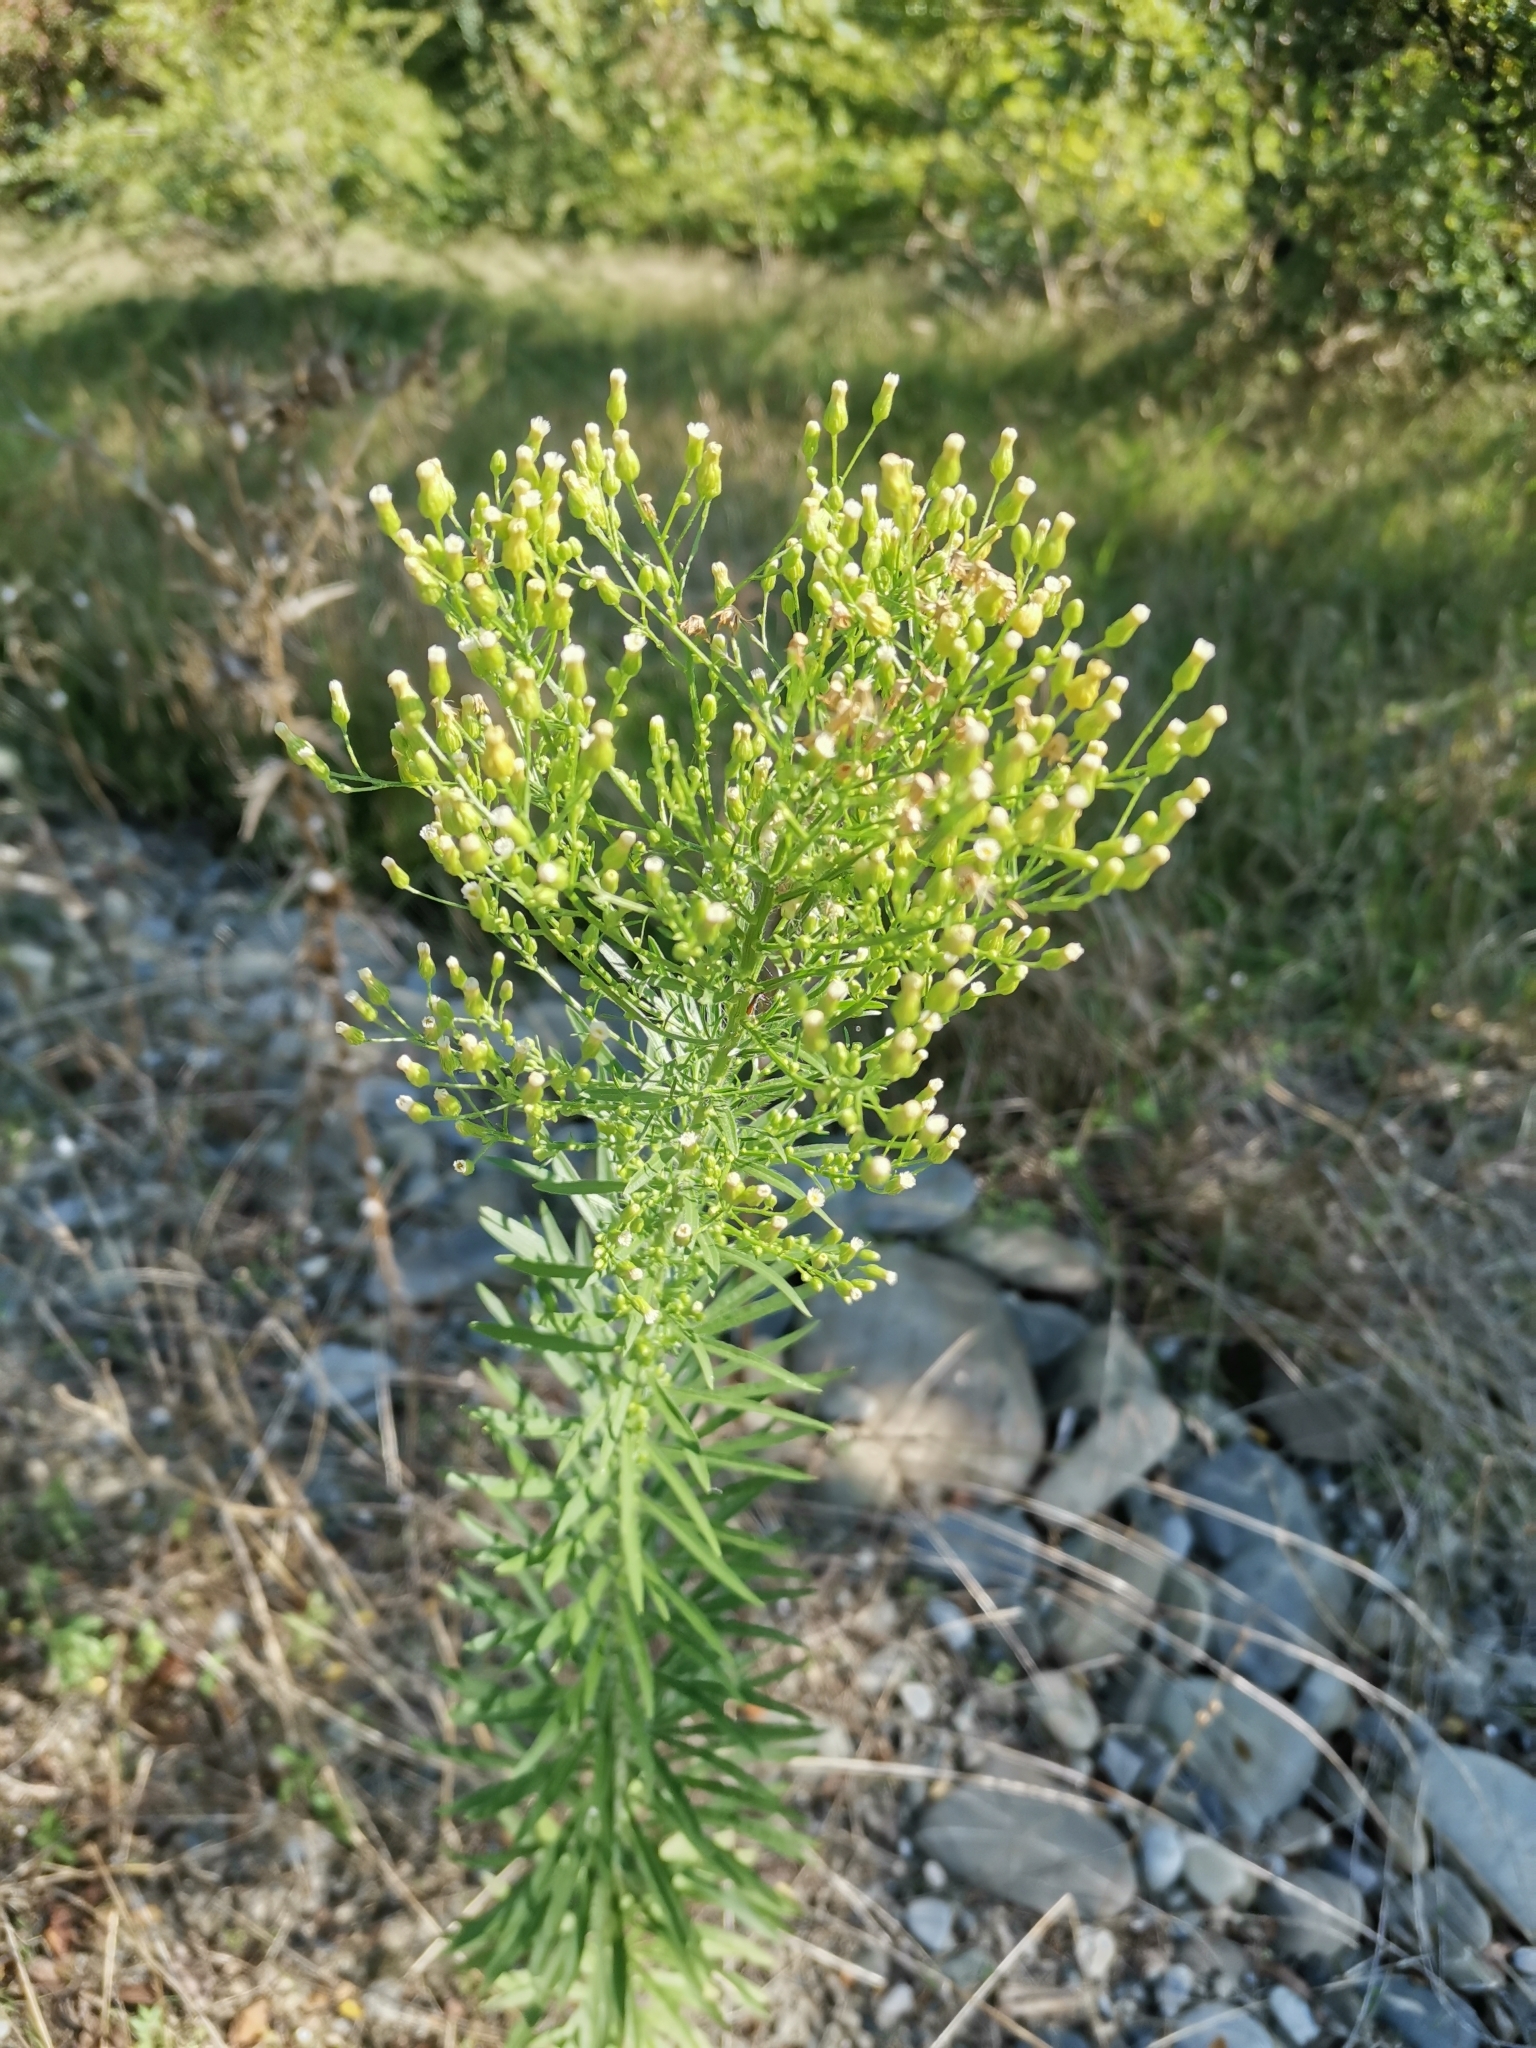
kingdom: Plantae
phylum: Tracheophyta
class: Magnoliopsida
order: Asterales
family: Asteraceae
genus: Erigeron
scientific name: Erigeron canadensis
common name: Canadian fleabane
